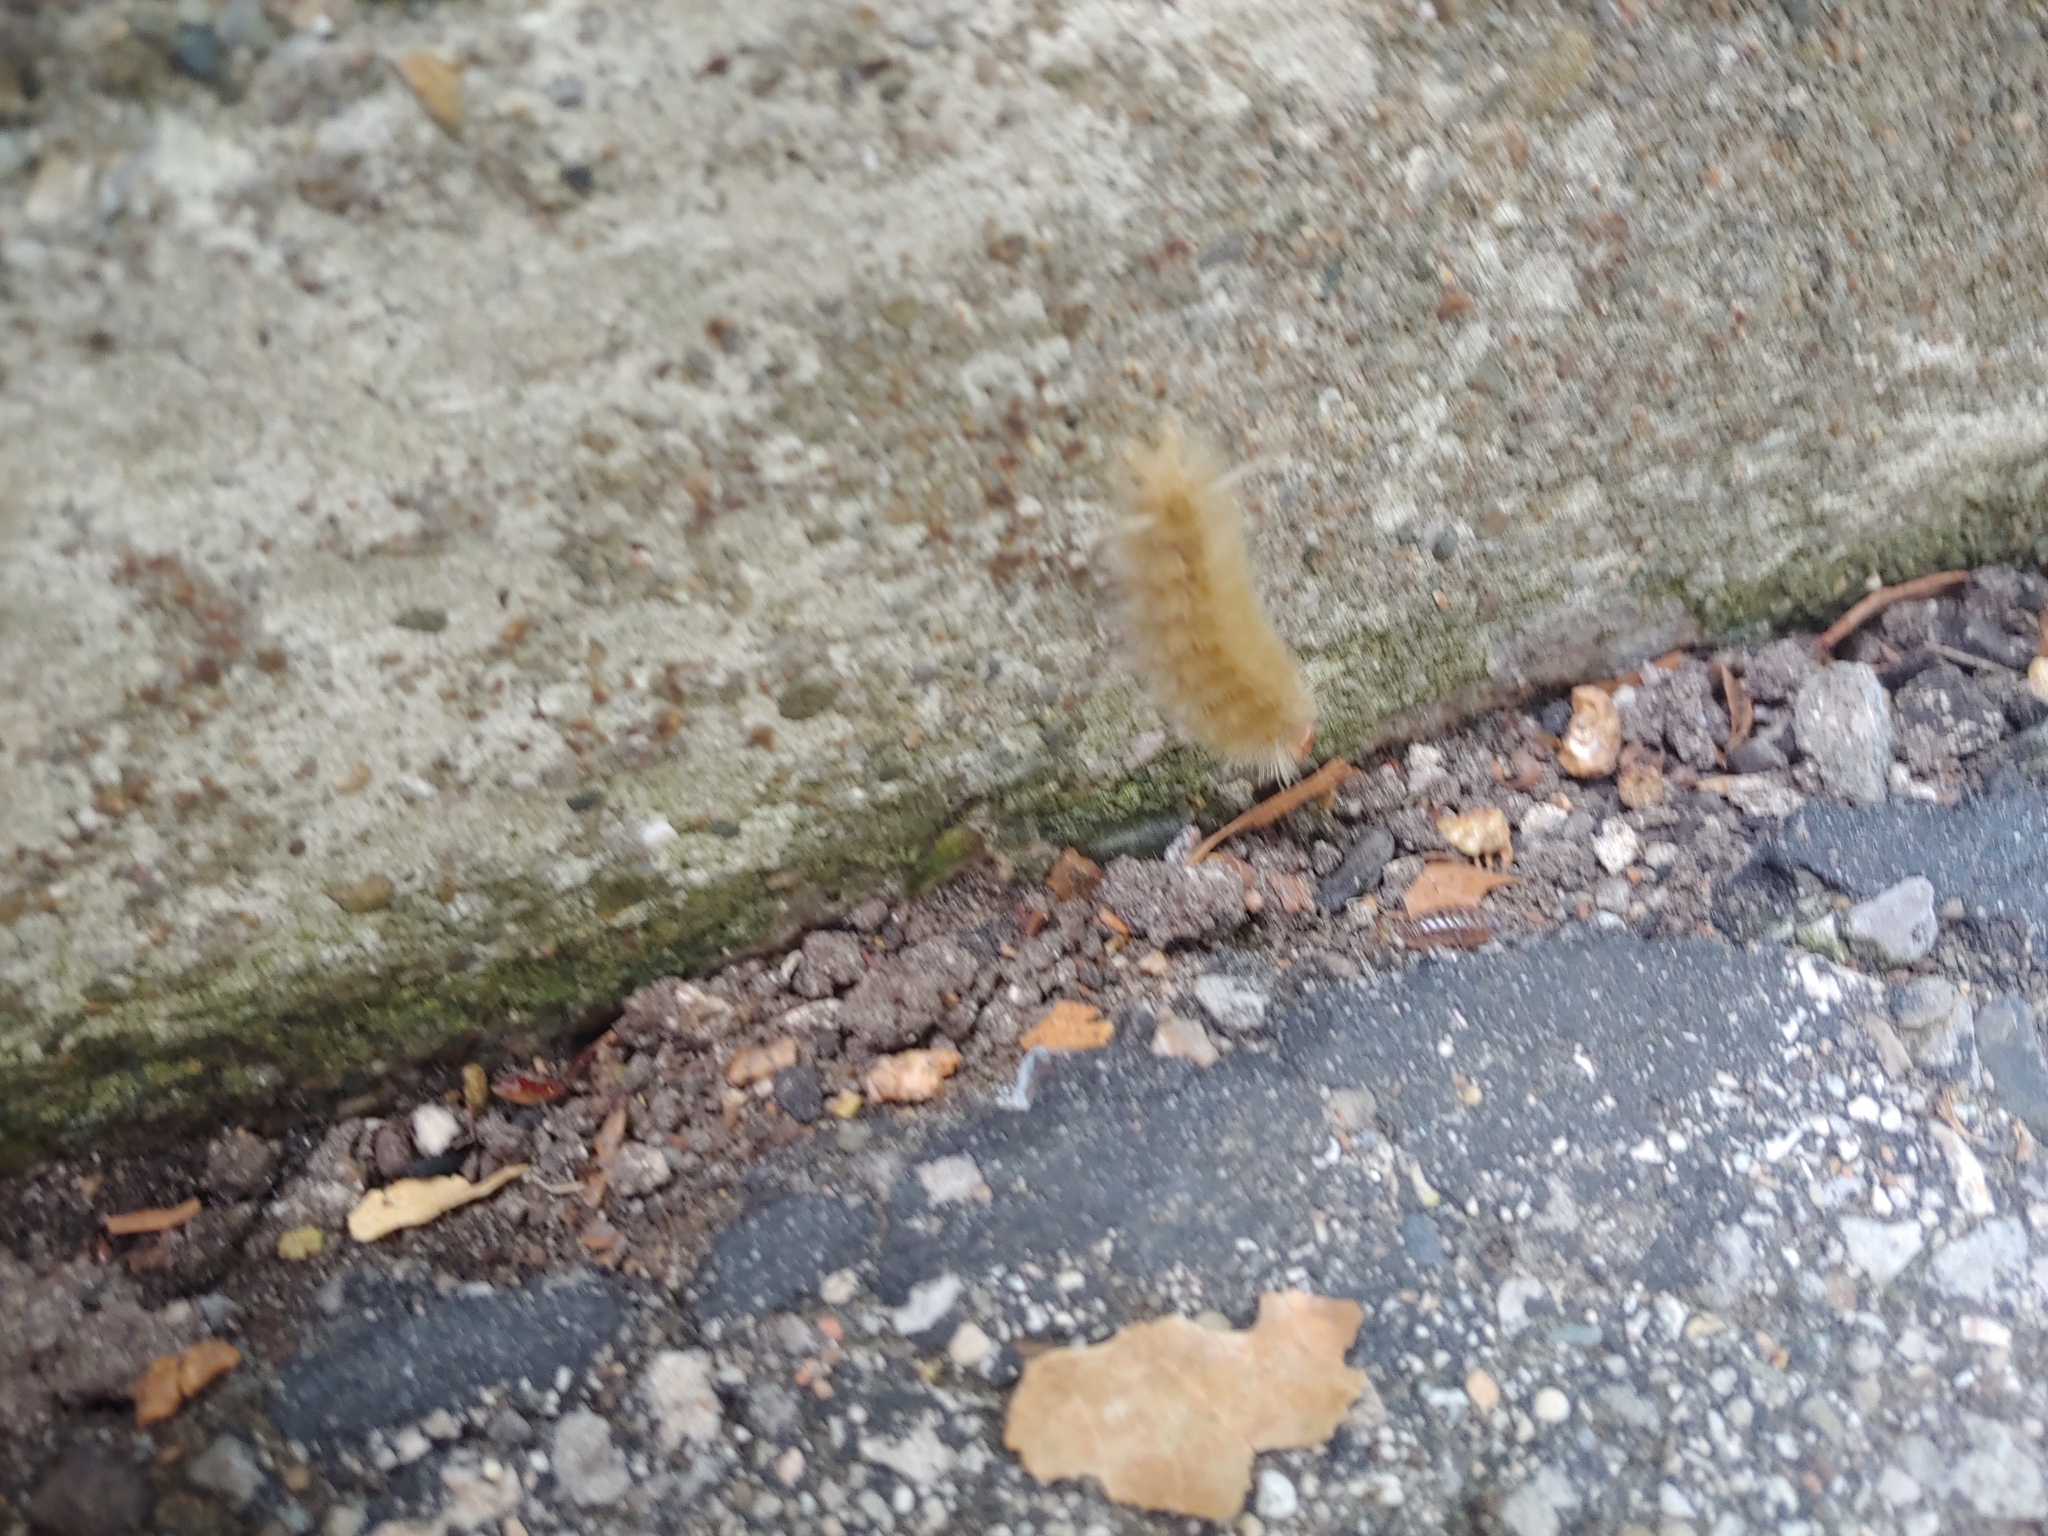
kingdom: Animalia
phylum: Arthropoda
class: Insecta
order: Lepidoptera
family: Erebidae
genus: Halysidota
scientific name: Halysidota harrisii
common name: Sycamore tussock moth
